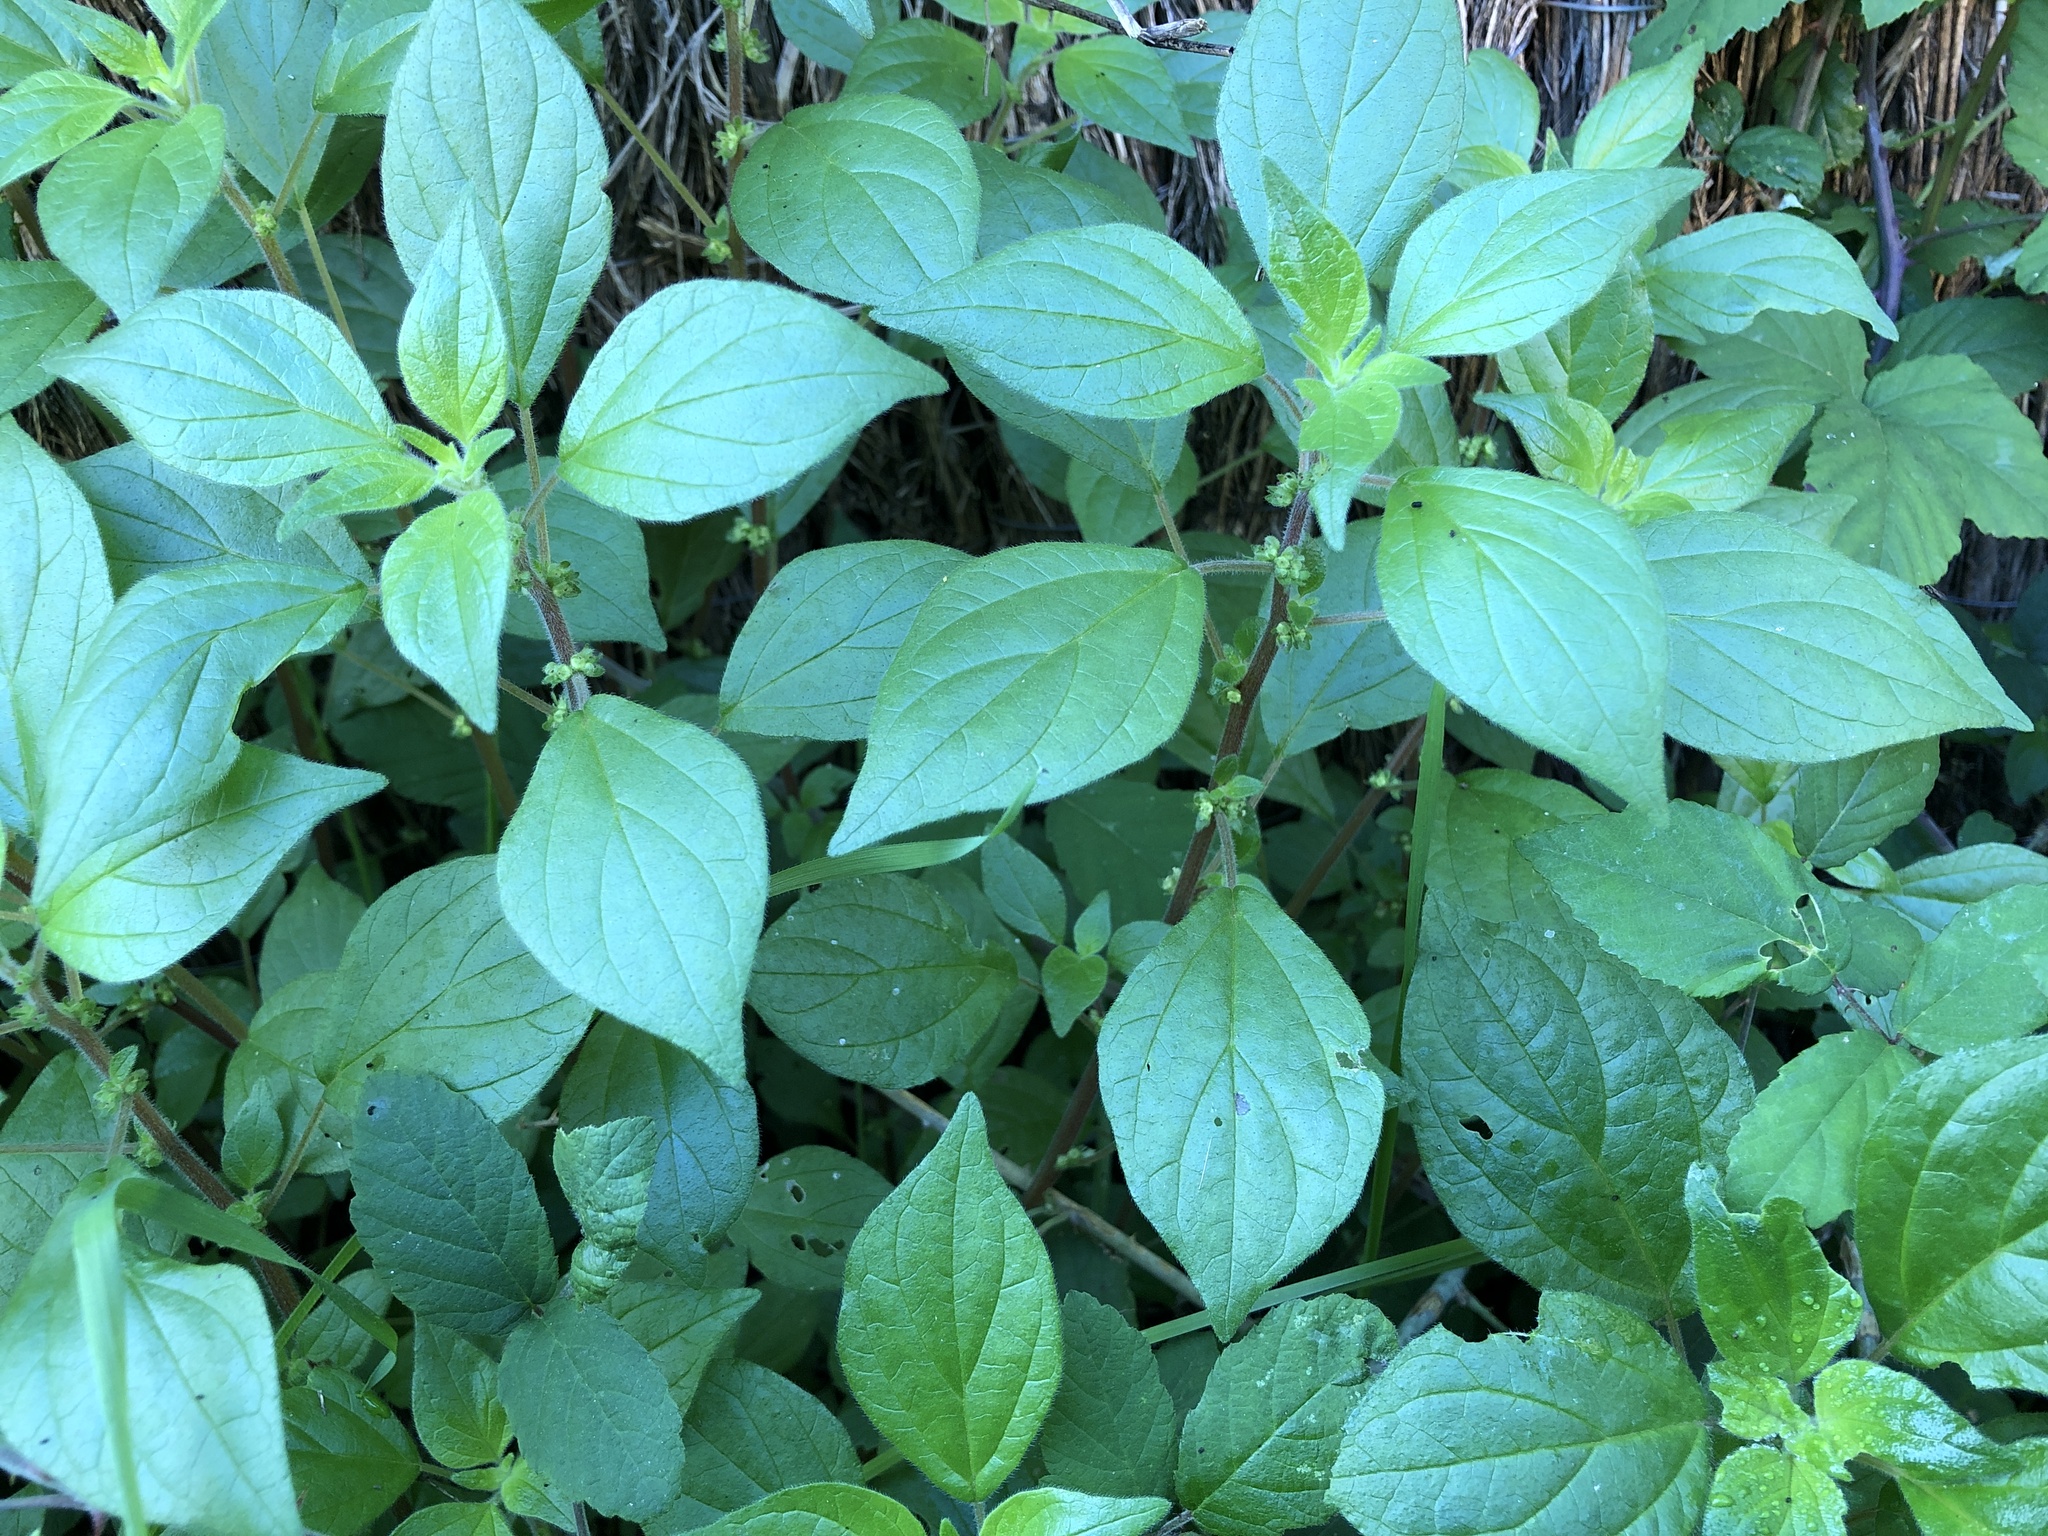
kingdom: Plantae
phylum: Tracheophyta
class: Magnoliopsida
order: Rosales
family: Urticaceae
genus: Parietaria
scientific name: Parietaria judaica
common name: Pellitory-of-the-wall
